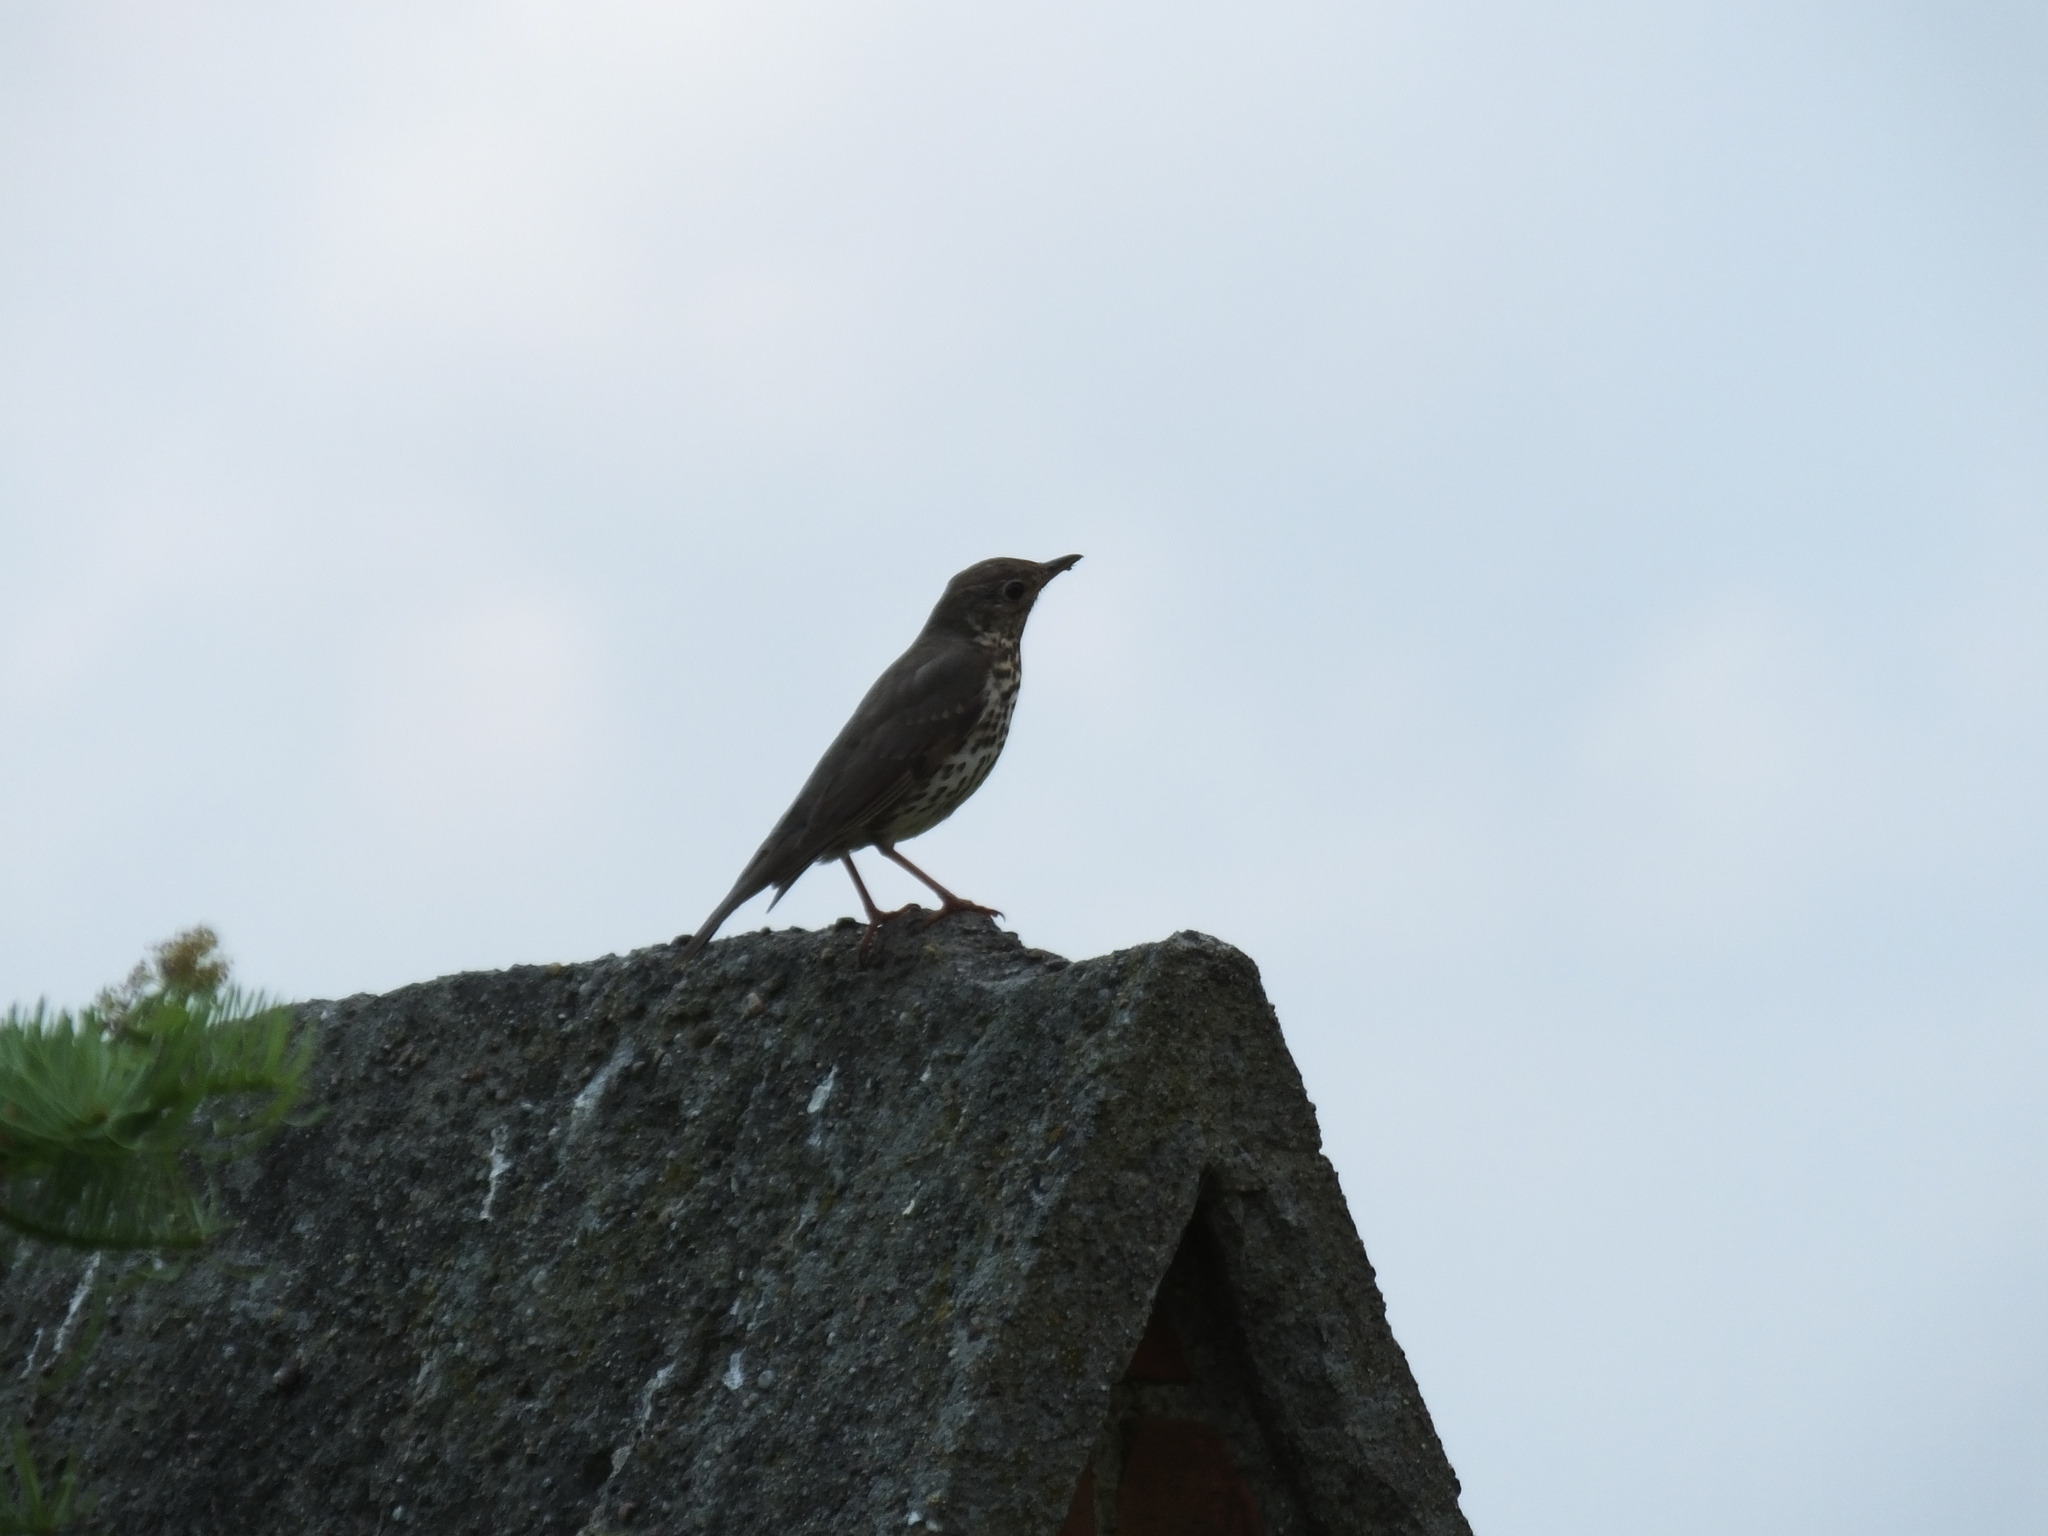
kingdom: Animalia
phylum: Chordata
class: Aves
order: Passeriformes
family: Turdidae
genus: Turdus
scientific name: Turdus philomelos
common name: Song thrush
